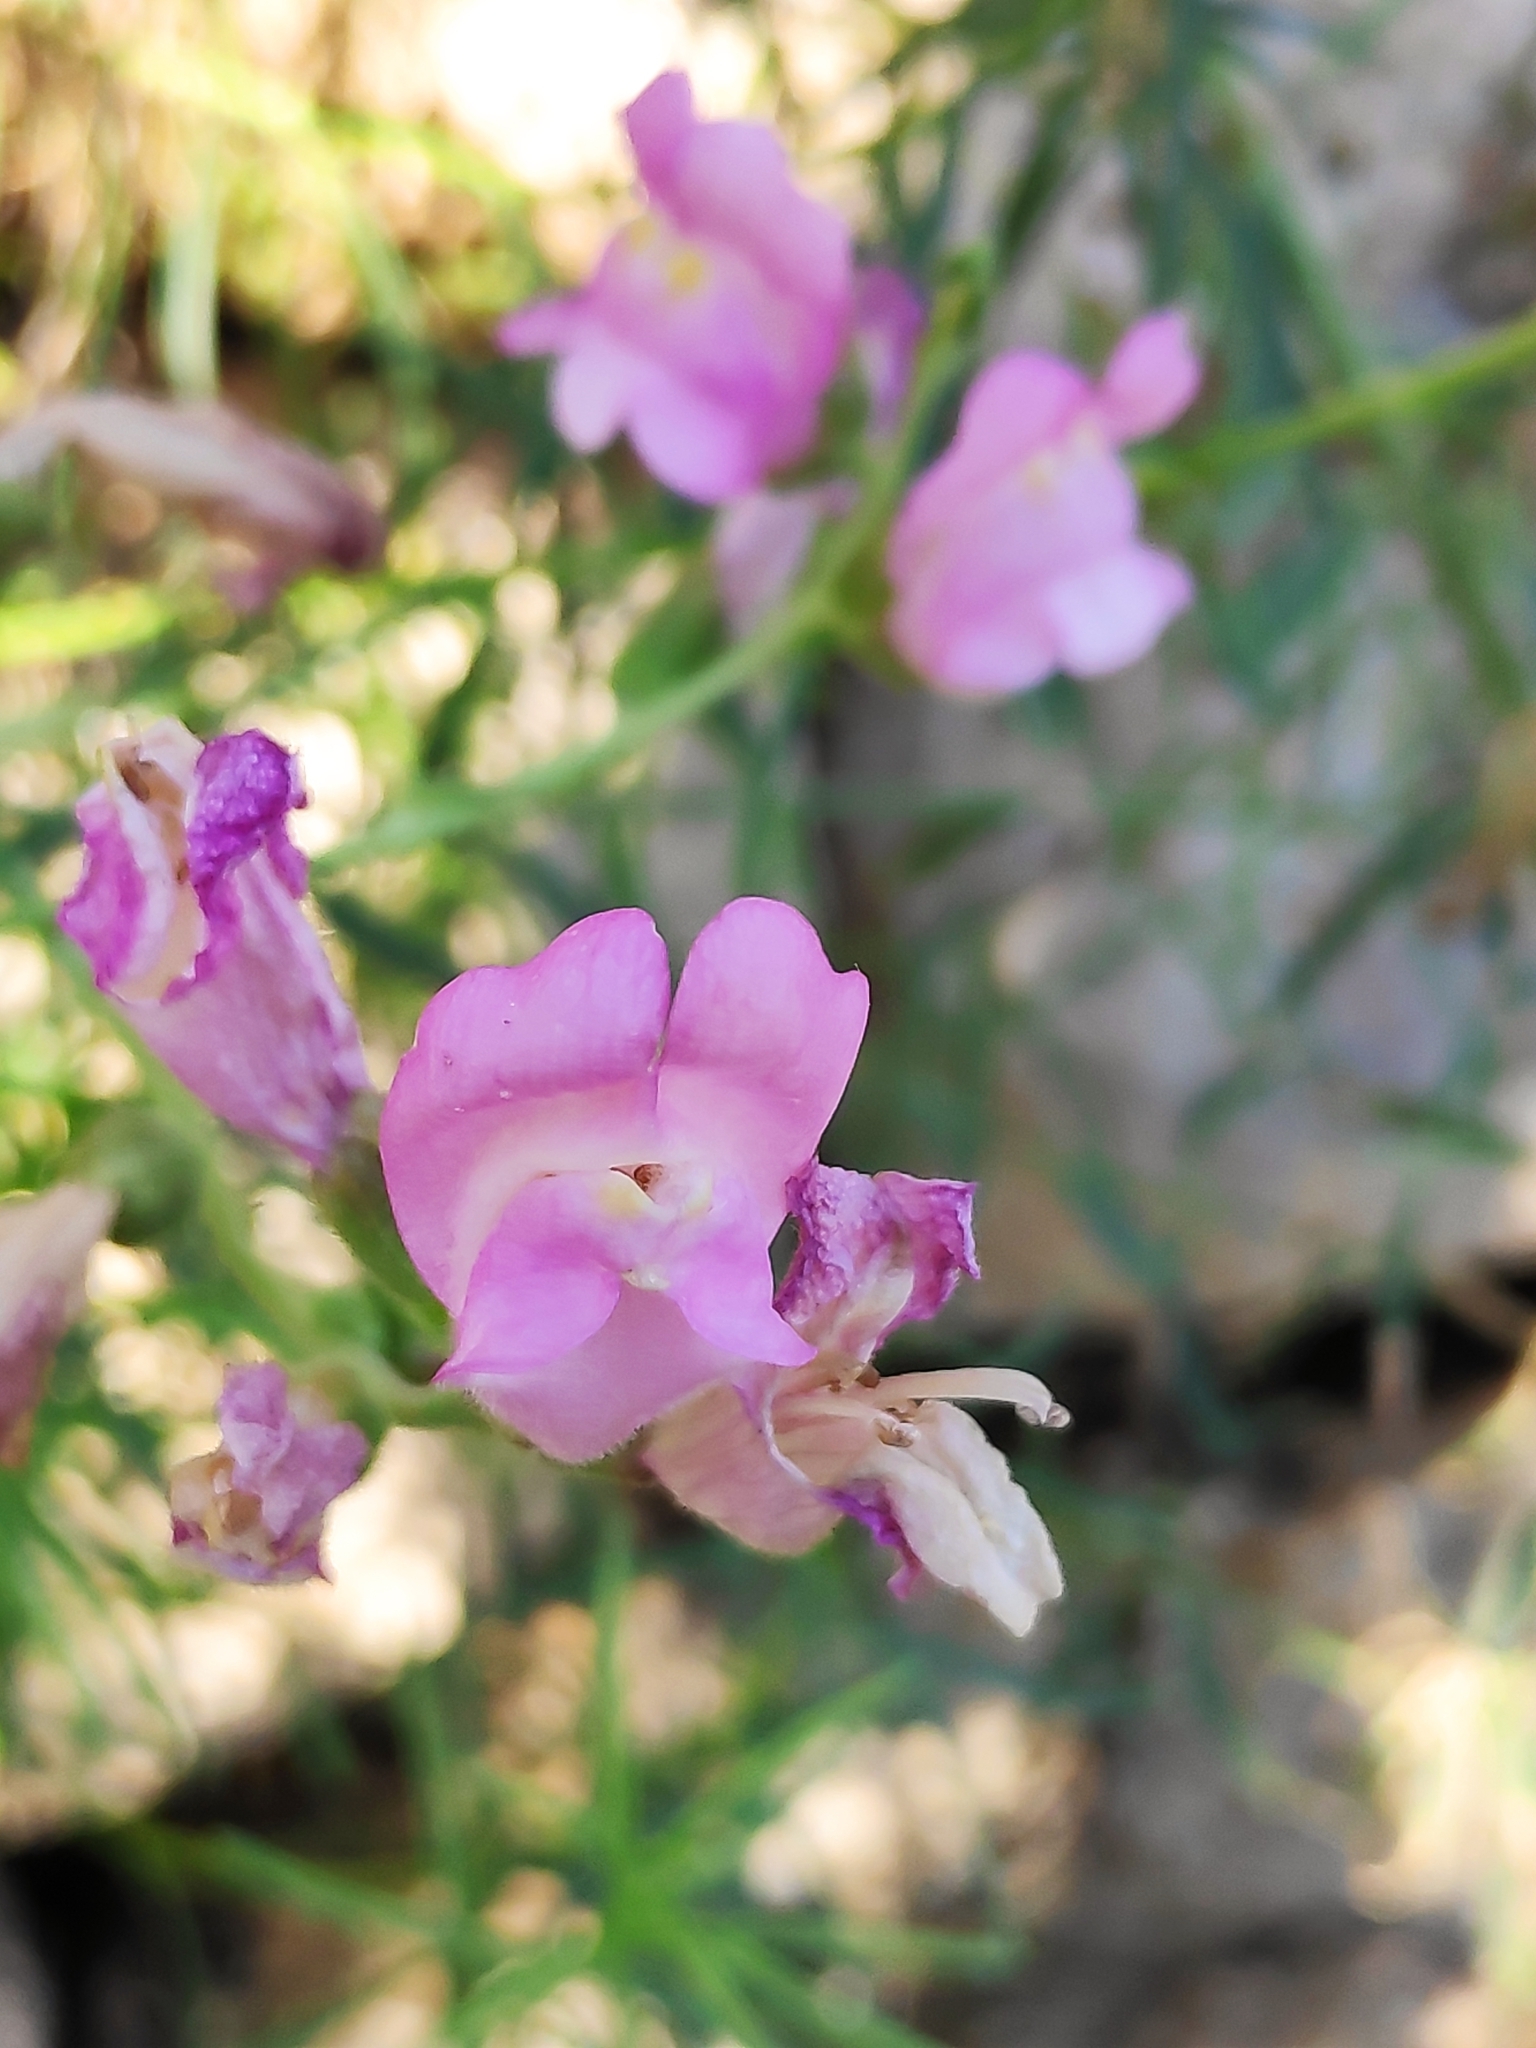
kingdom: Plantae
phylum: Tracheophyta
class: Magnoliopsida
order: Lamiales
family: Plantaginaceae
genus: Antirrhinum
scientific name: Antirrhinum tortuosum
